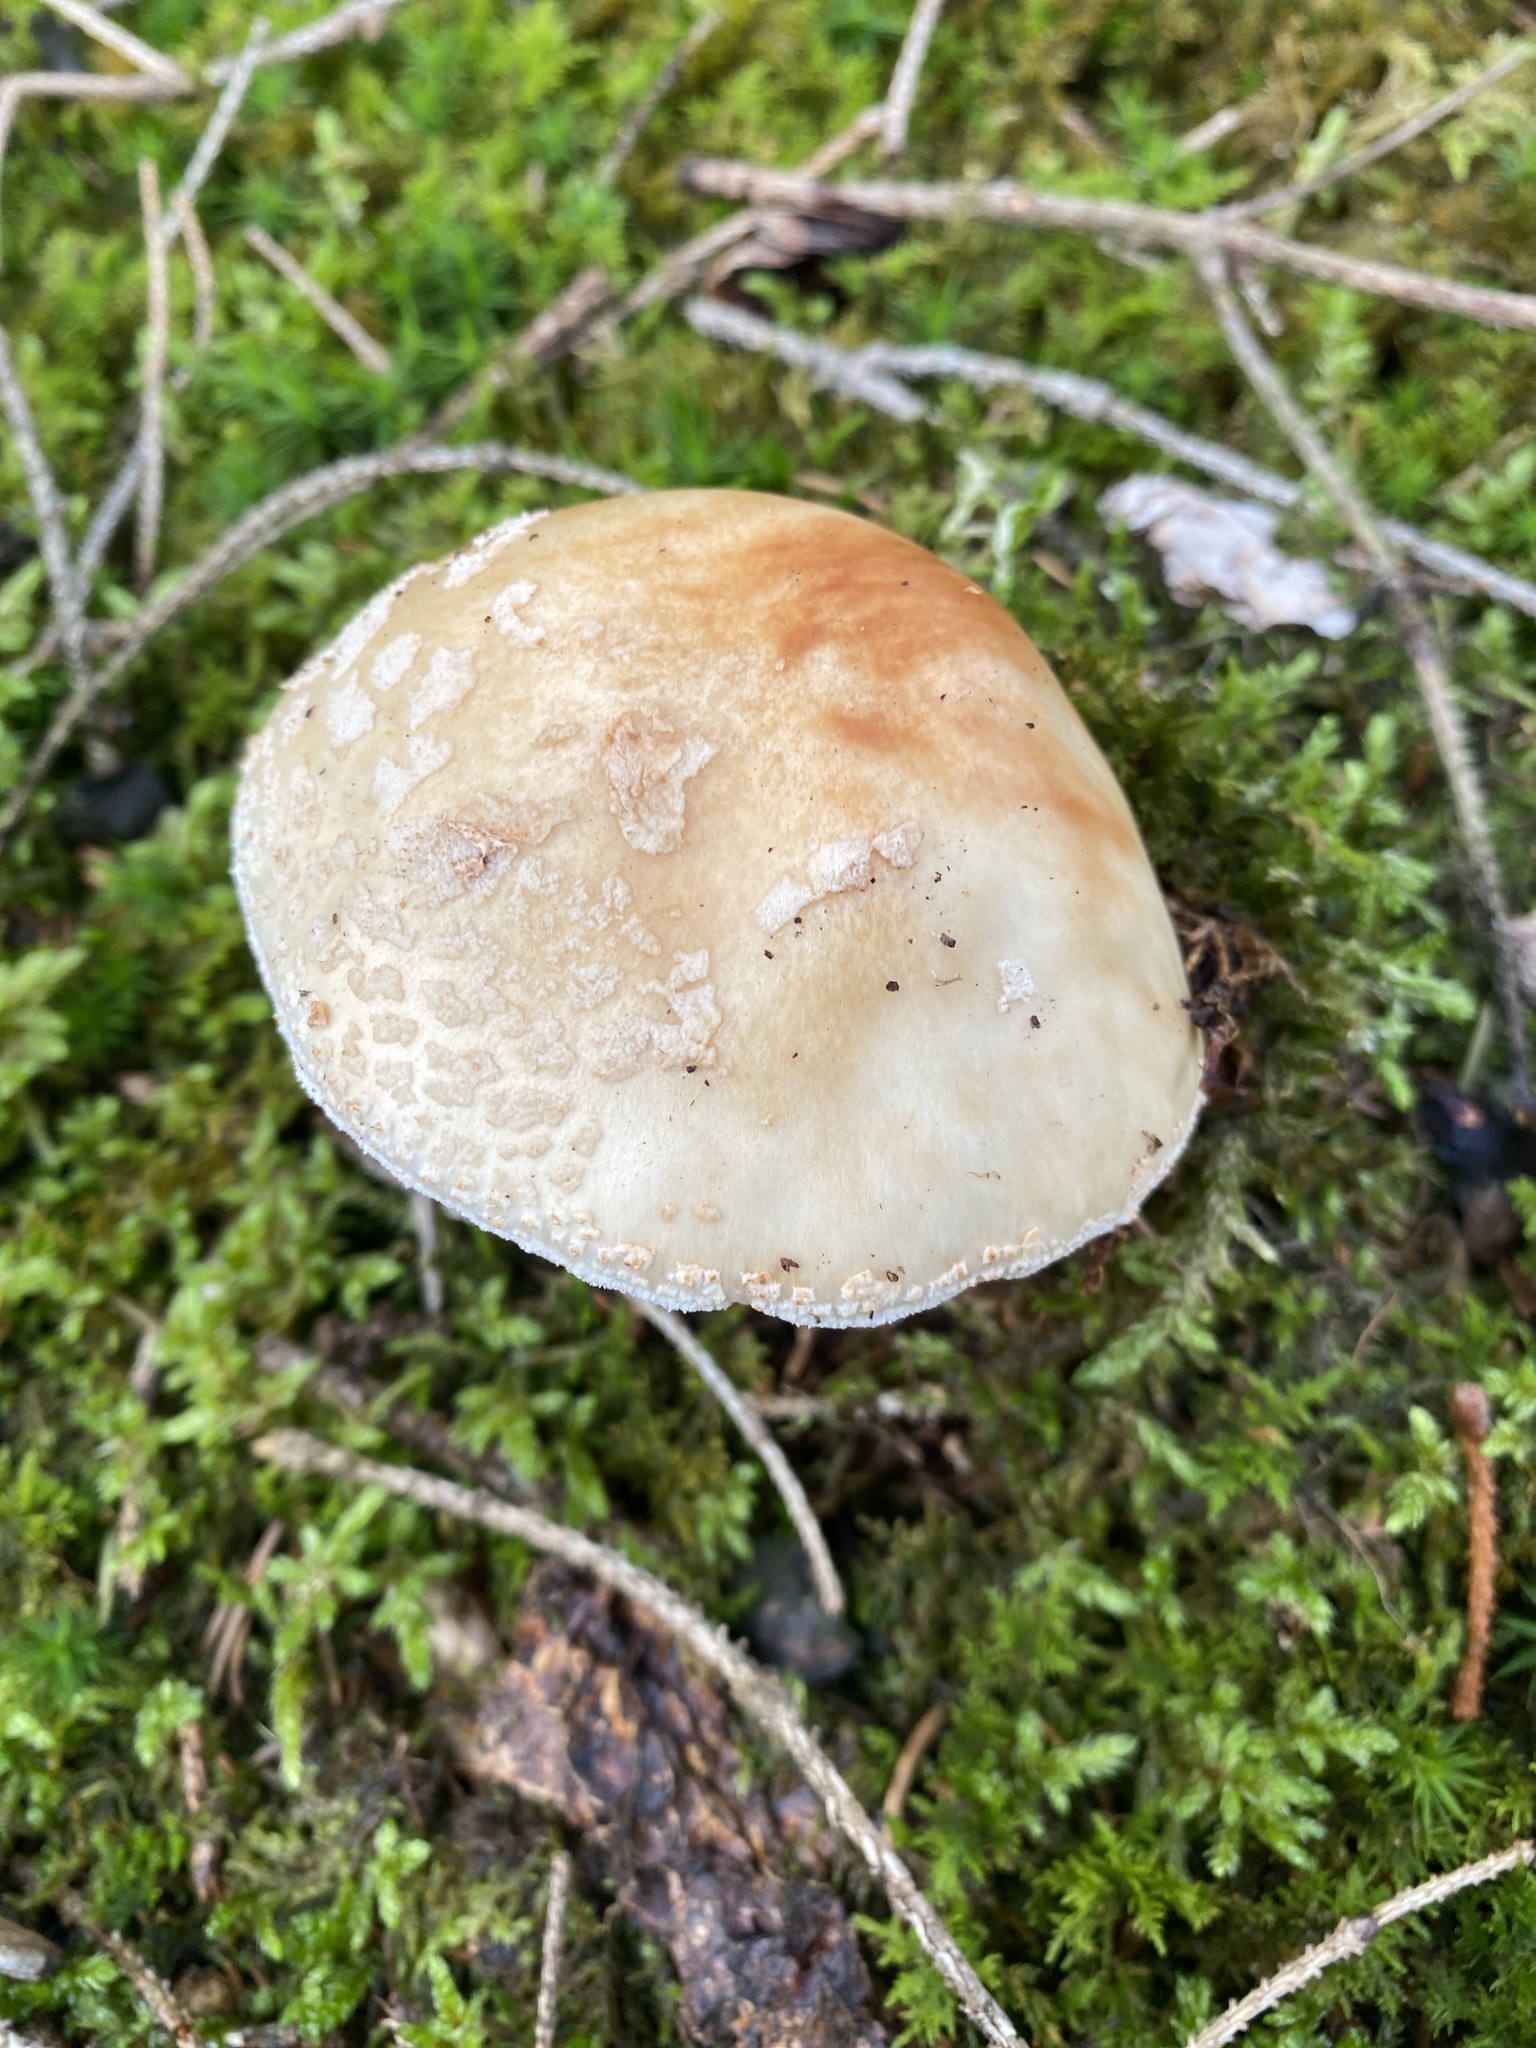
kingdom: Fungi
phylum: Basidiomycota
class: Agaricomycetes
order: Agaricales
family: Amanitaceae
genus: Amanita
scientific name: Amanita rubescens
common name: Blusher
